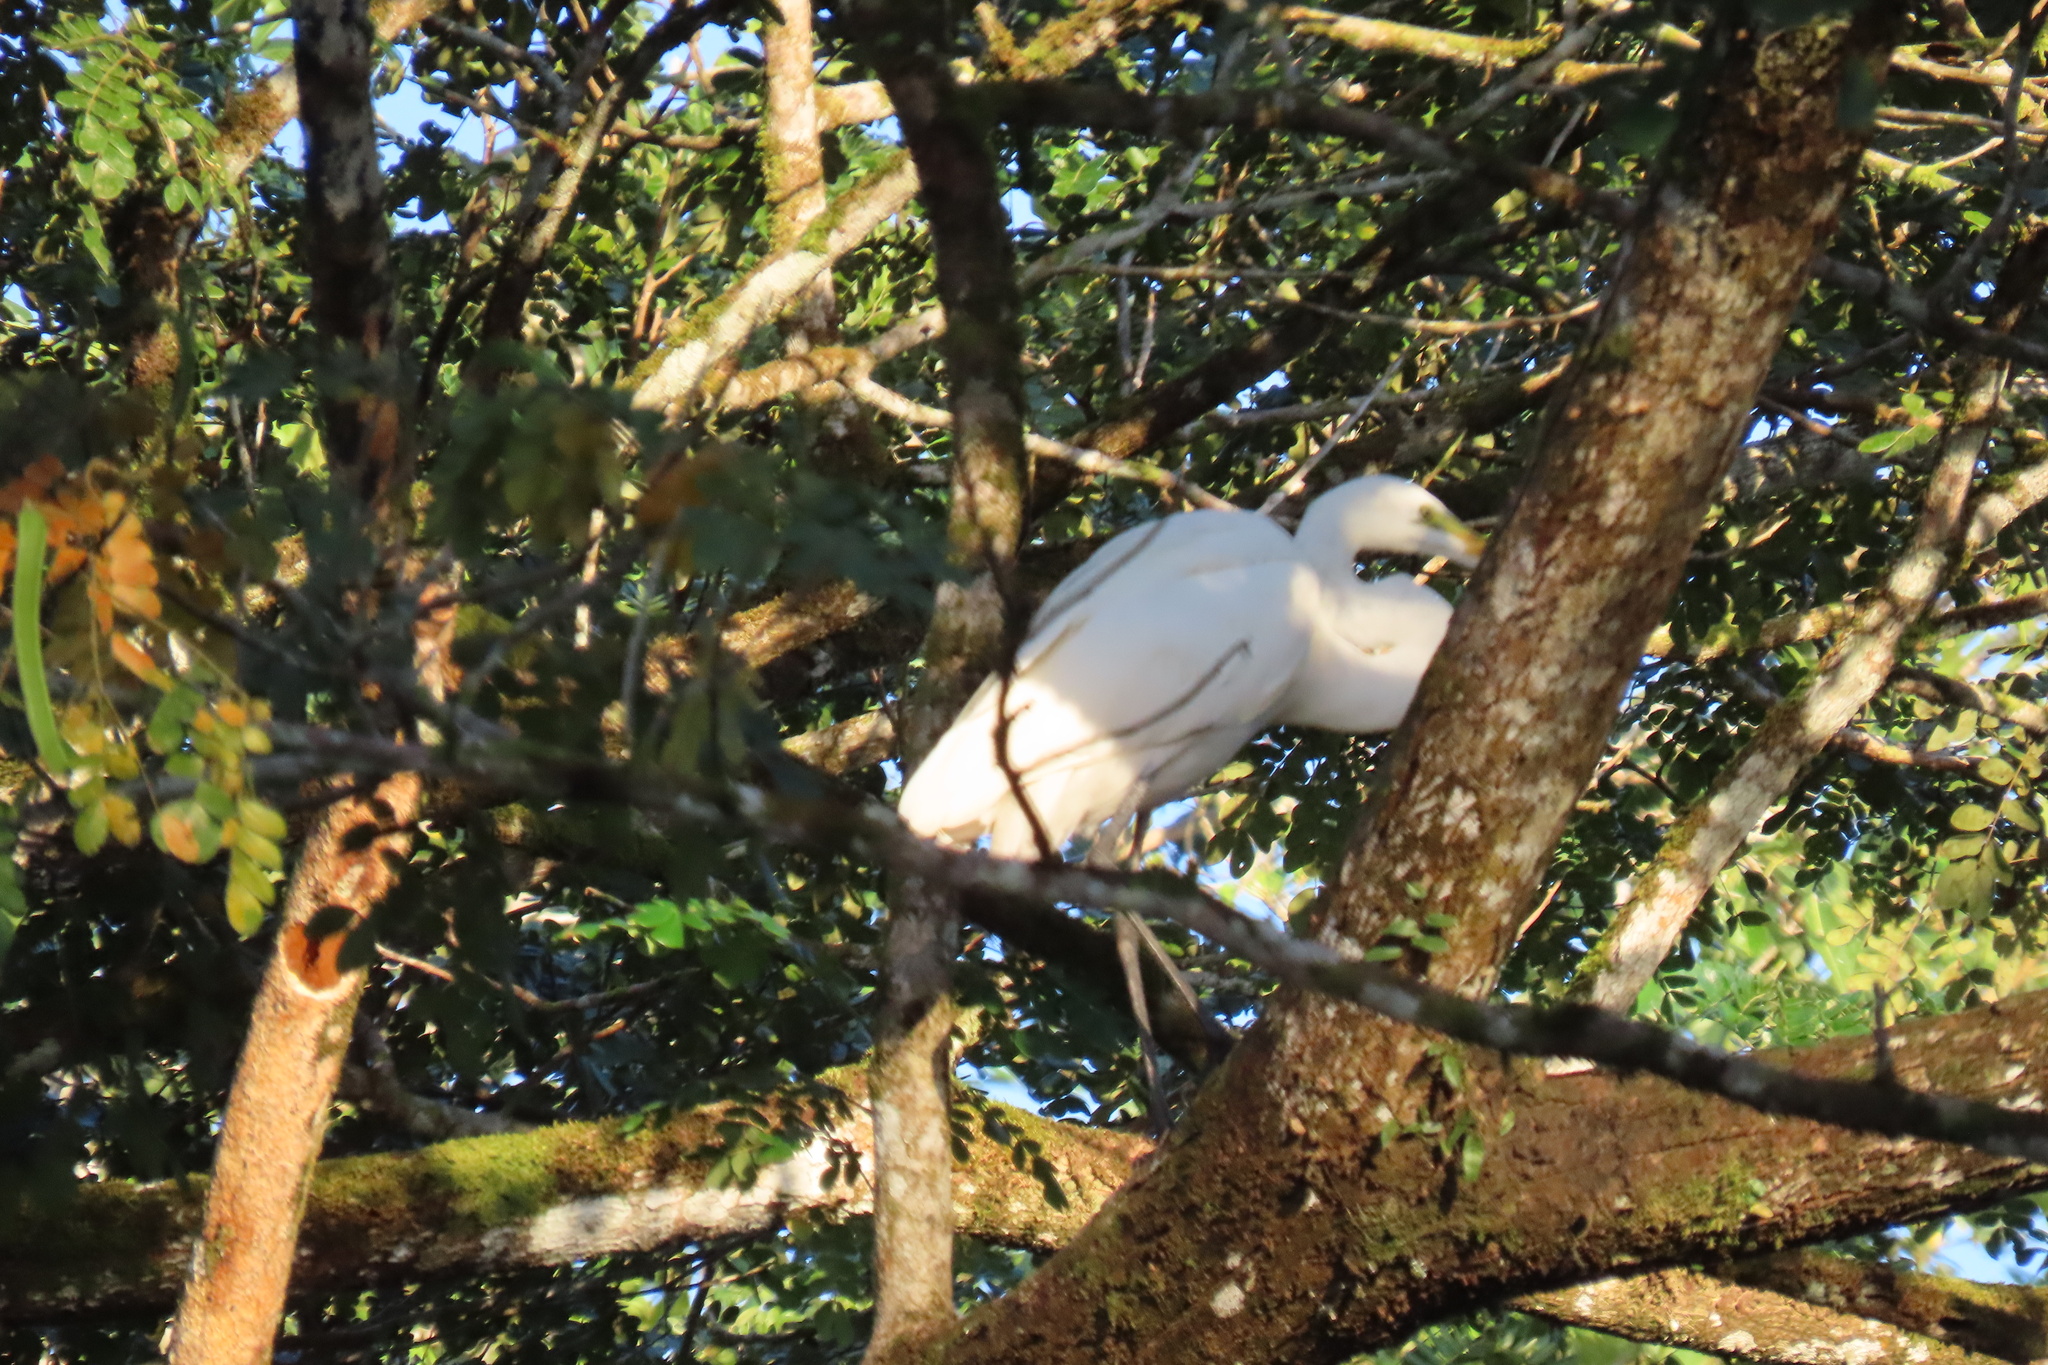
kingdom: Animalia
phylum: Chordata
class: Aves
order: Pelecaniformes
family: Ardeidae
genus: Ardea
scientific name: Ardea alba
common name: Great egret
